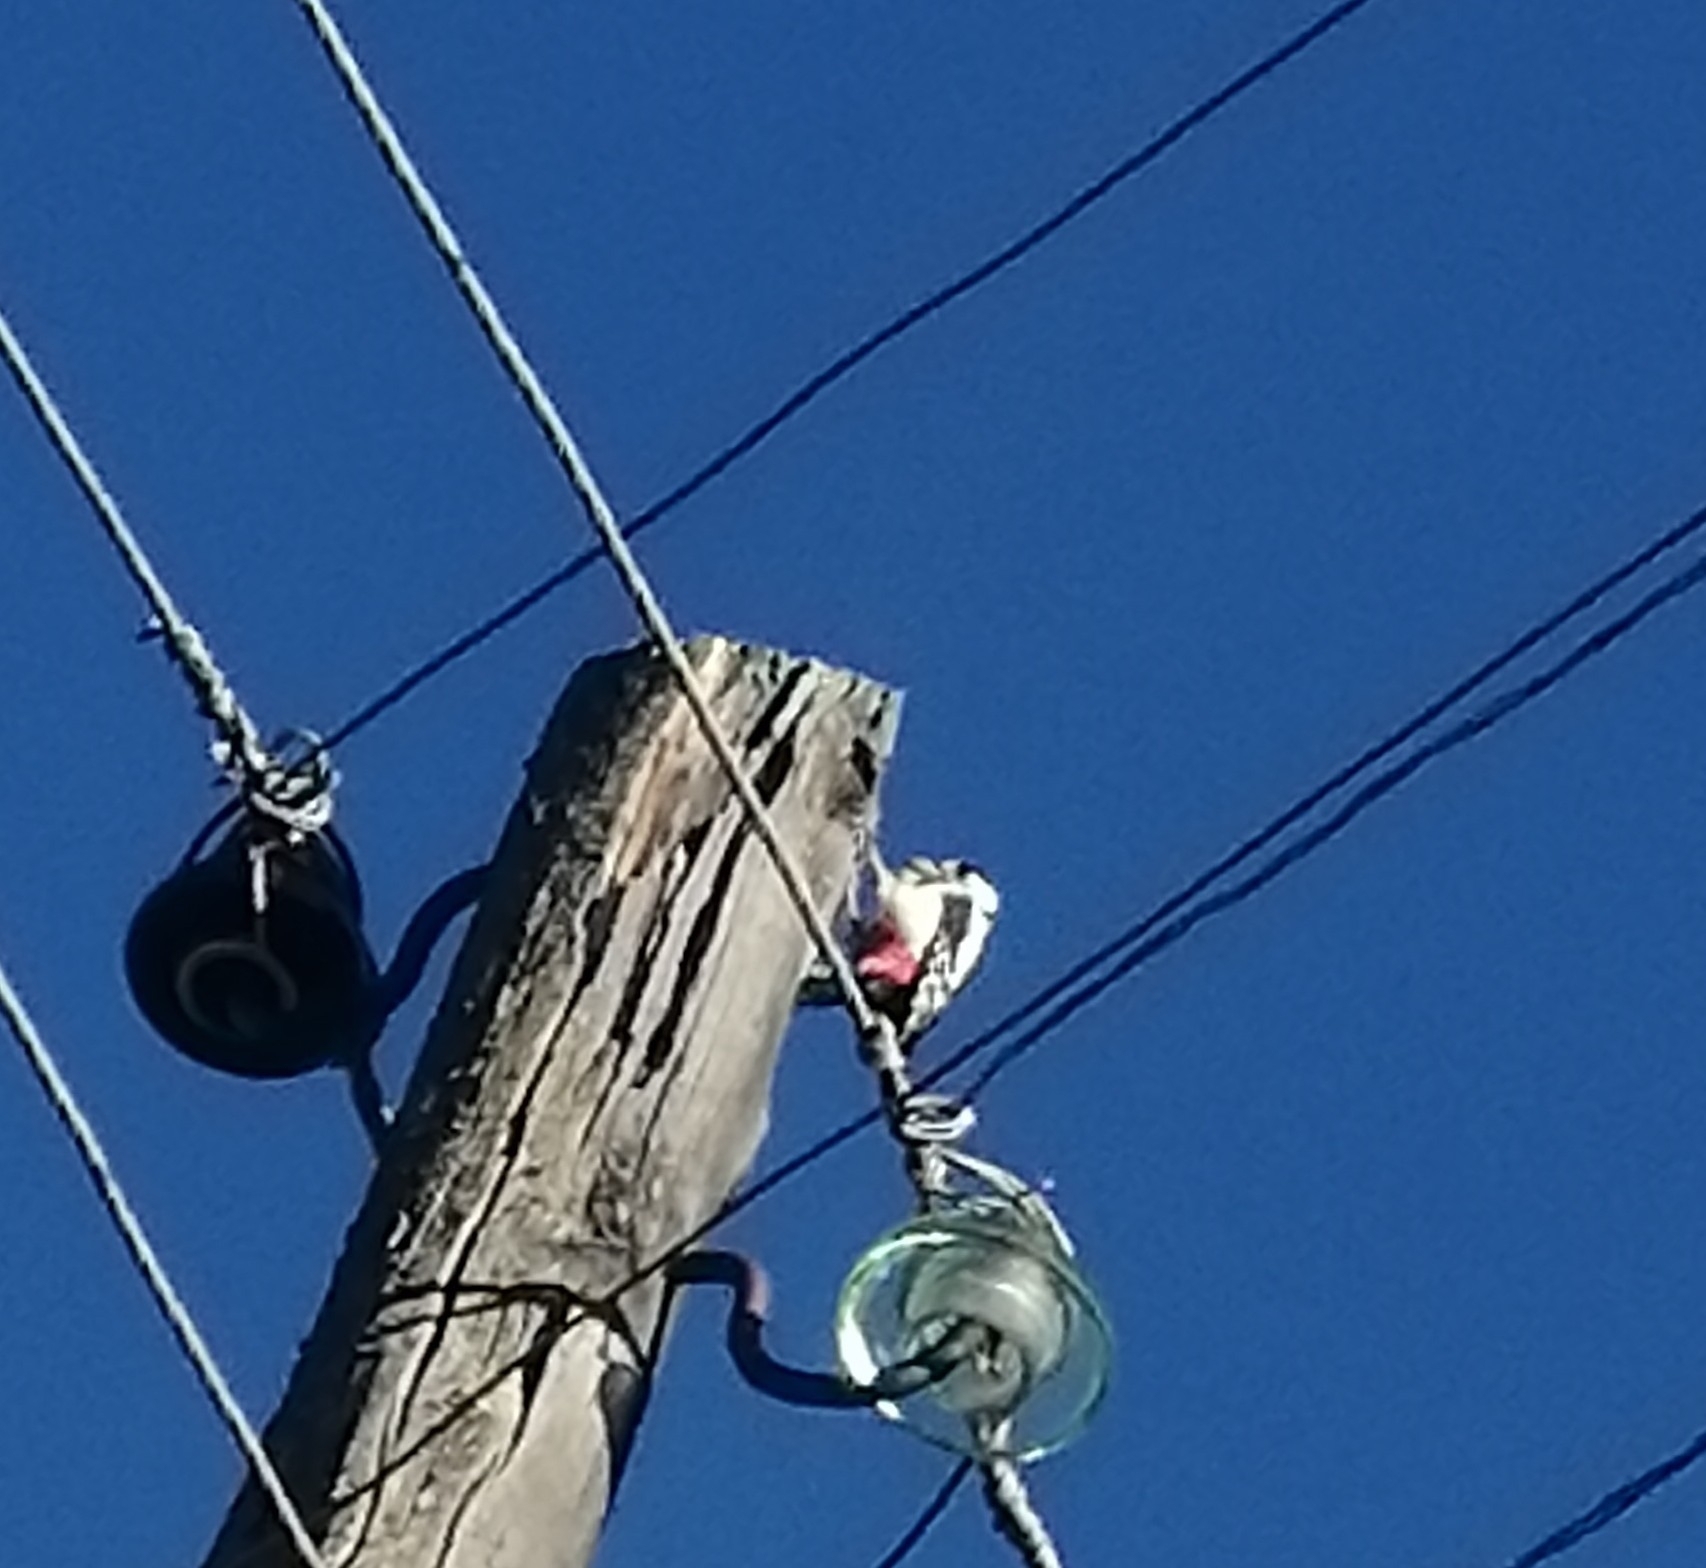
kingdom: Animalia
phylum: Chordata
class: Aves
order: Piciformes
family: Picidae
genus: Dendrocopos
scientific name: Dendrocopos major
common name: Great spotted woodpecker
